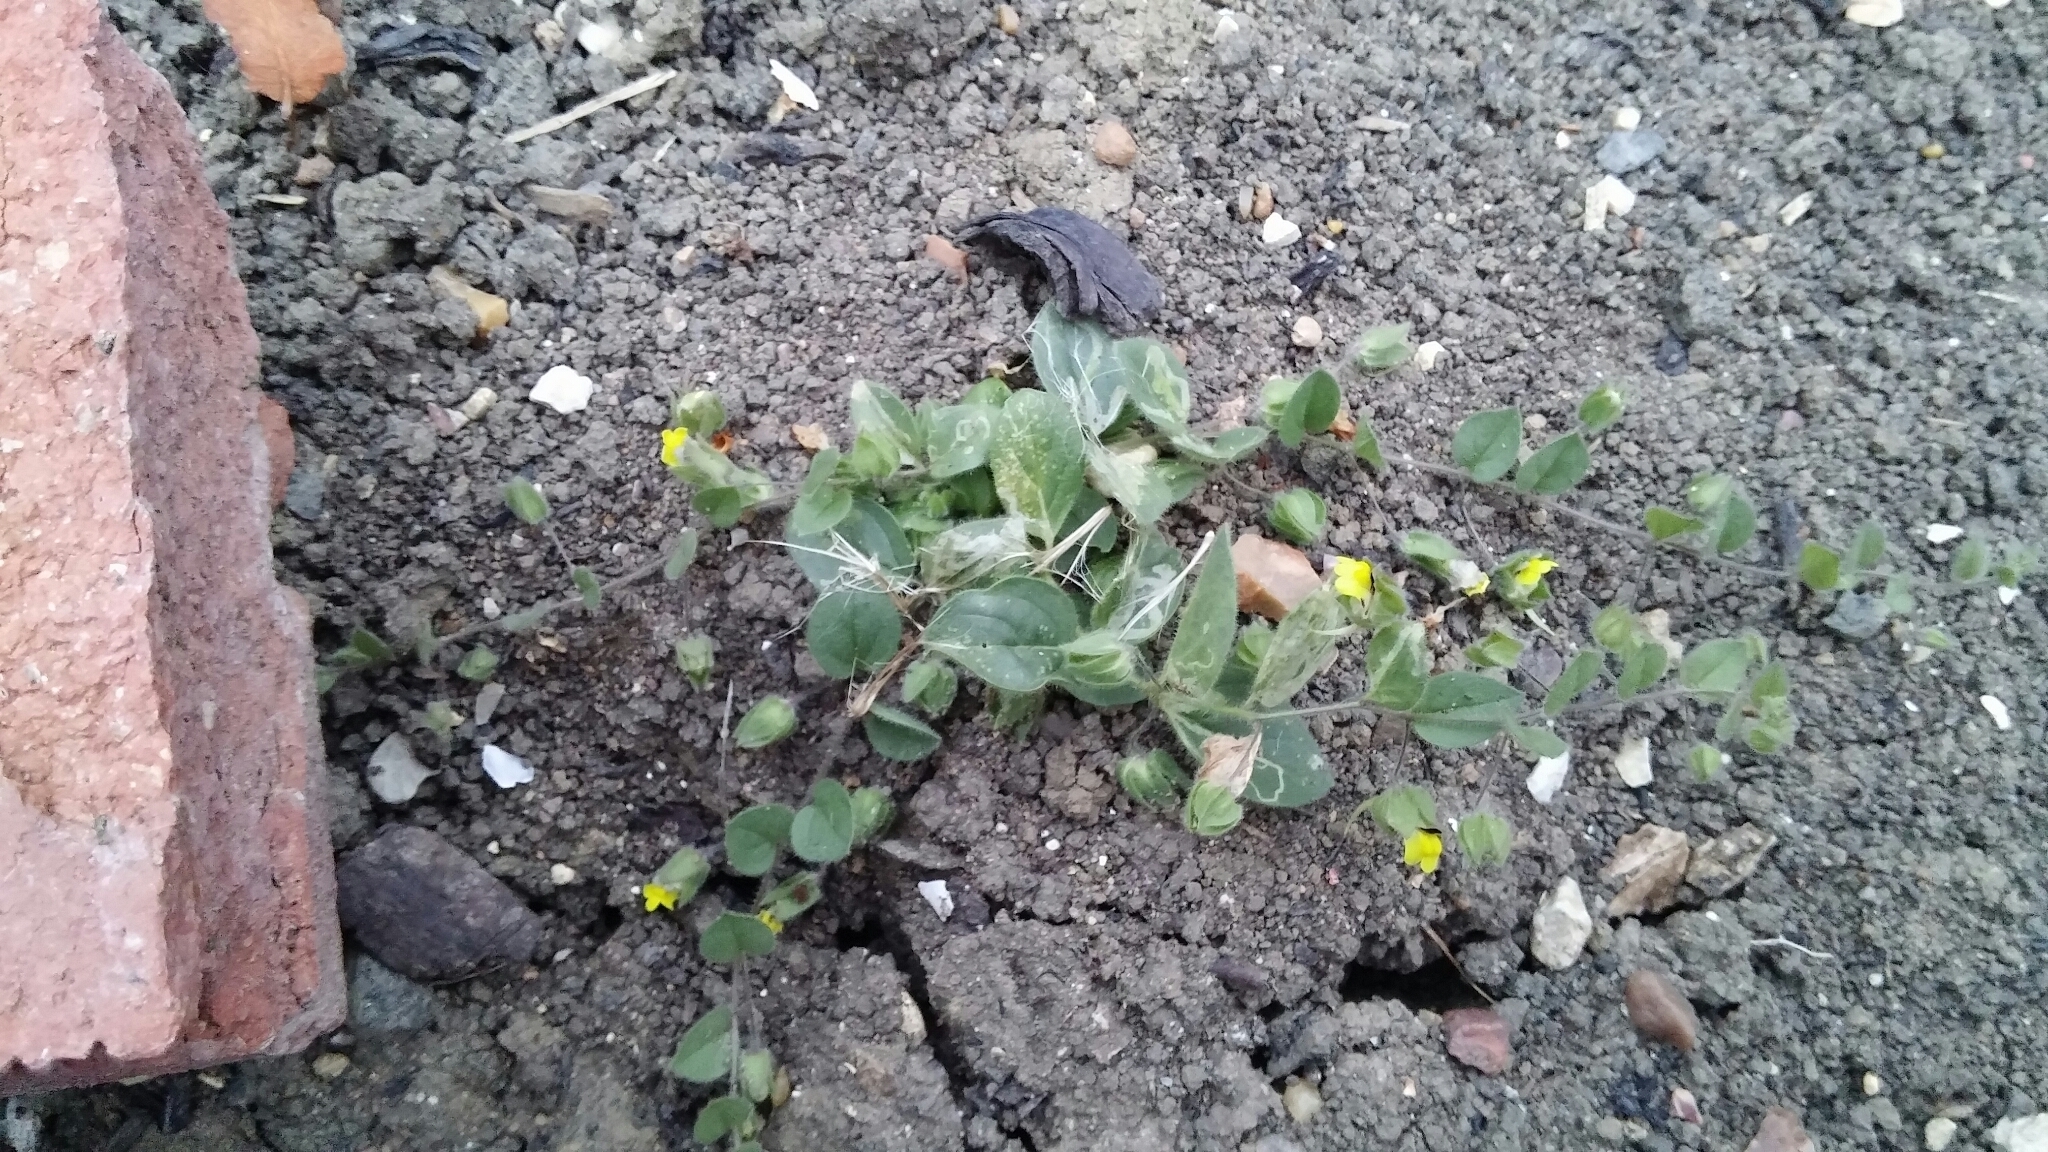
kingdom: Plantae
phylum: Tracheophyta
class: Magnoliopsida
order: Lamiales
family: Plantaginaceae
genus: Kickxia
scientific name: Kickxia spuria
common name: Round-leaved fluellen
